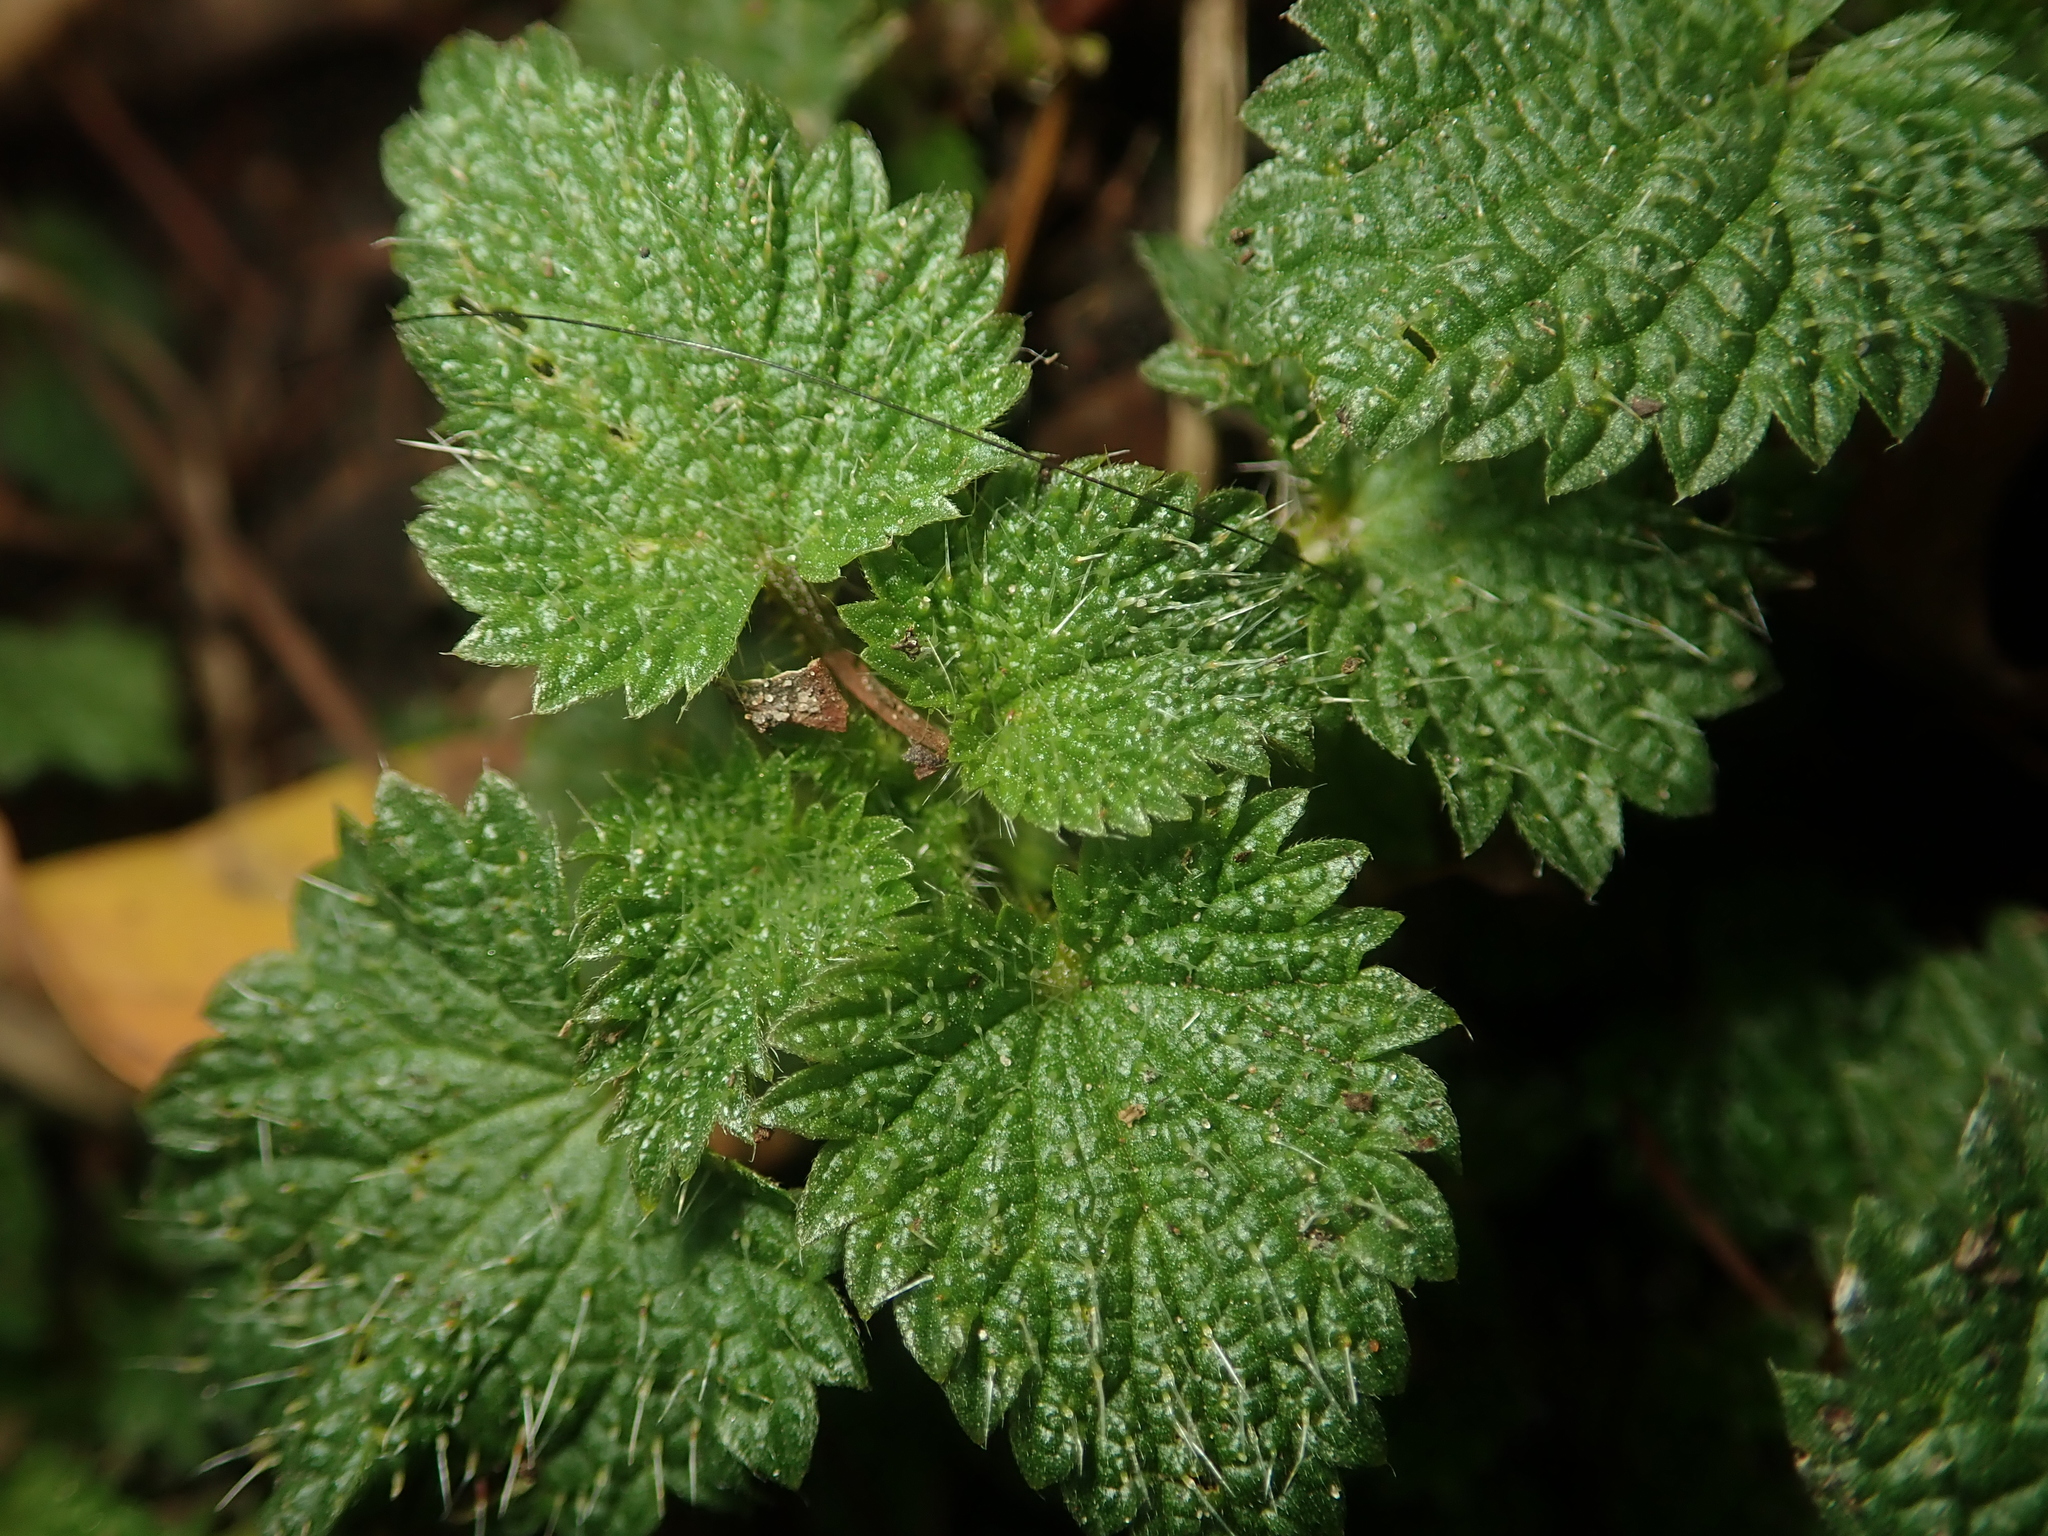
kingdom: Plantae
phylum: Tracheophyta
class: Magnoliopsida
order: Rosales
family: Urticaceae
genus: Urtica
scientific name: Urtica dioica
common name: Common nettle
